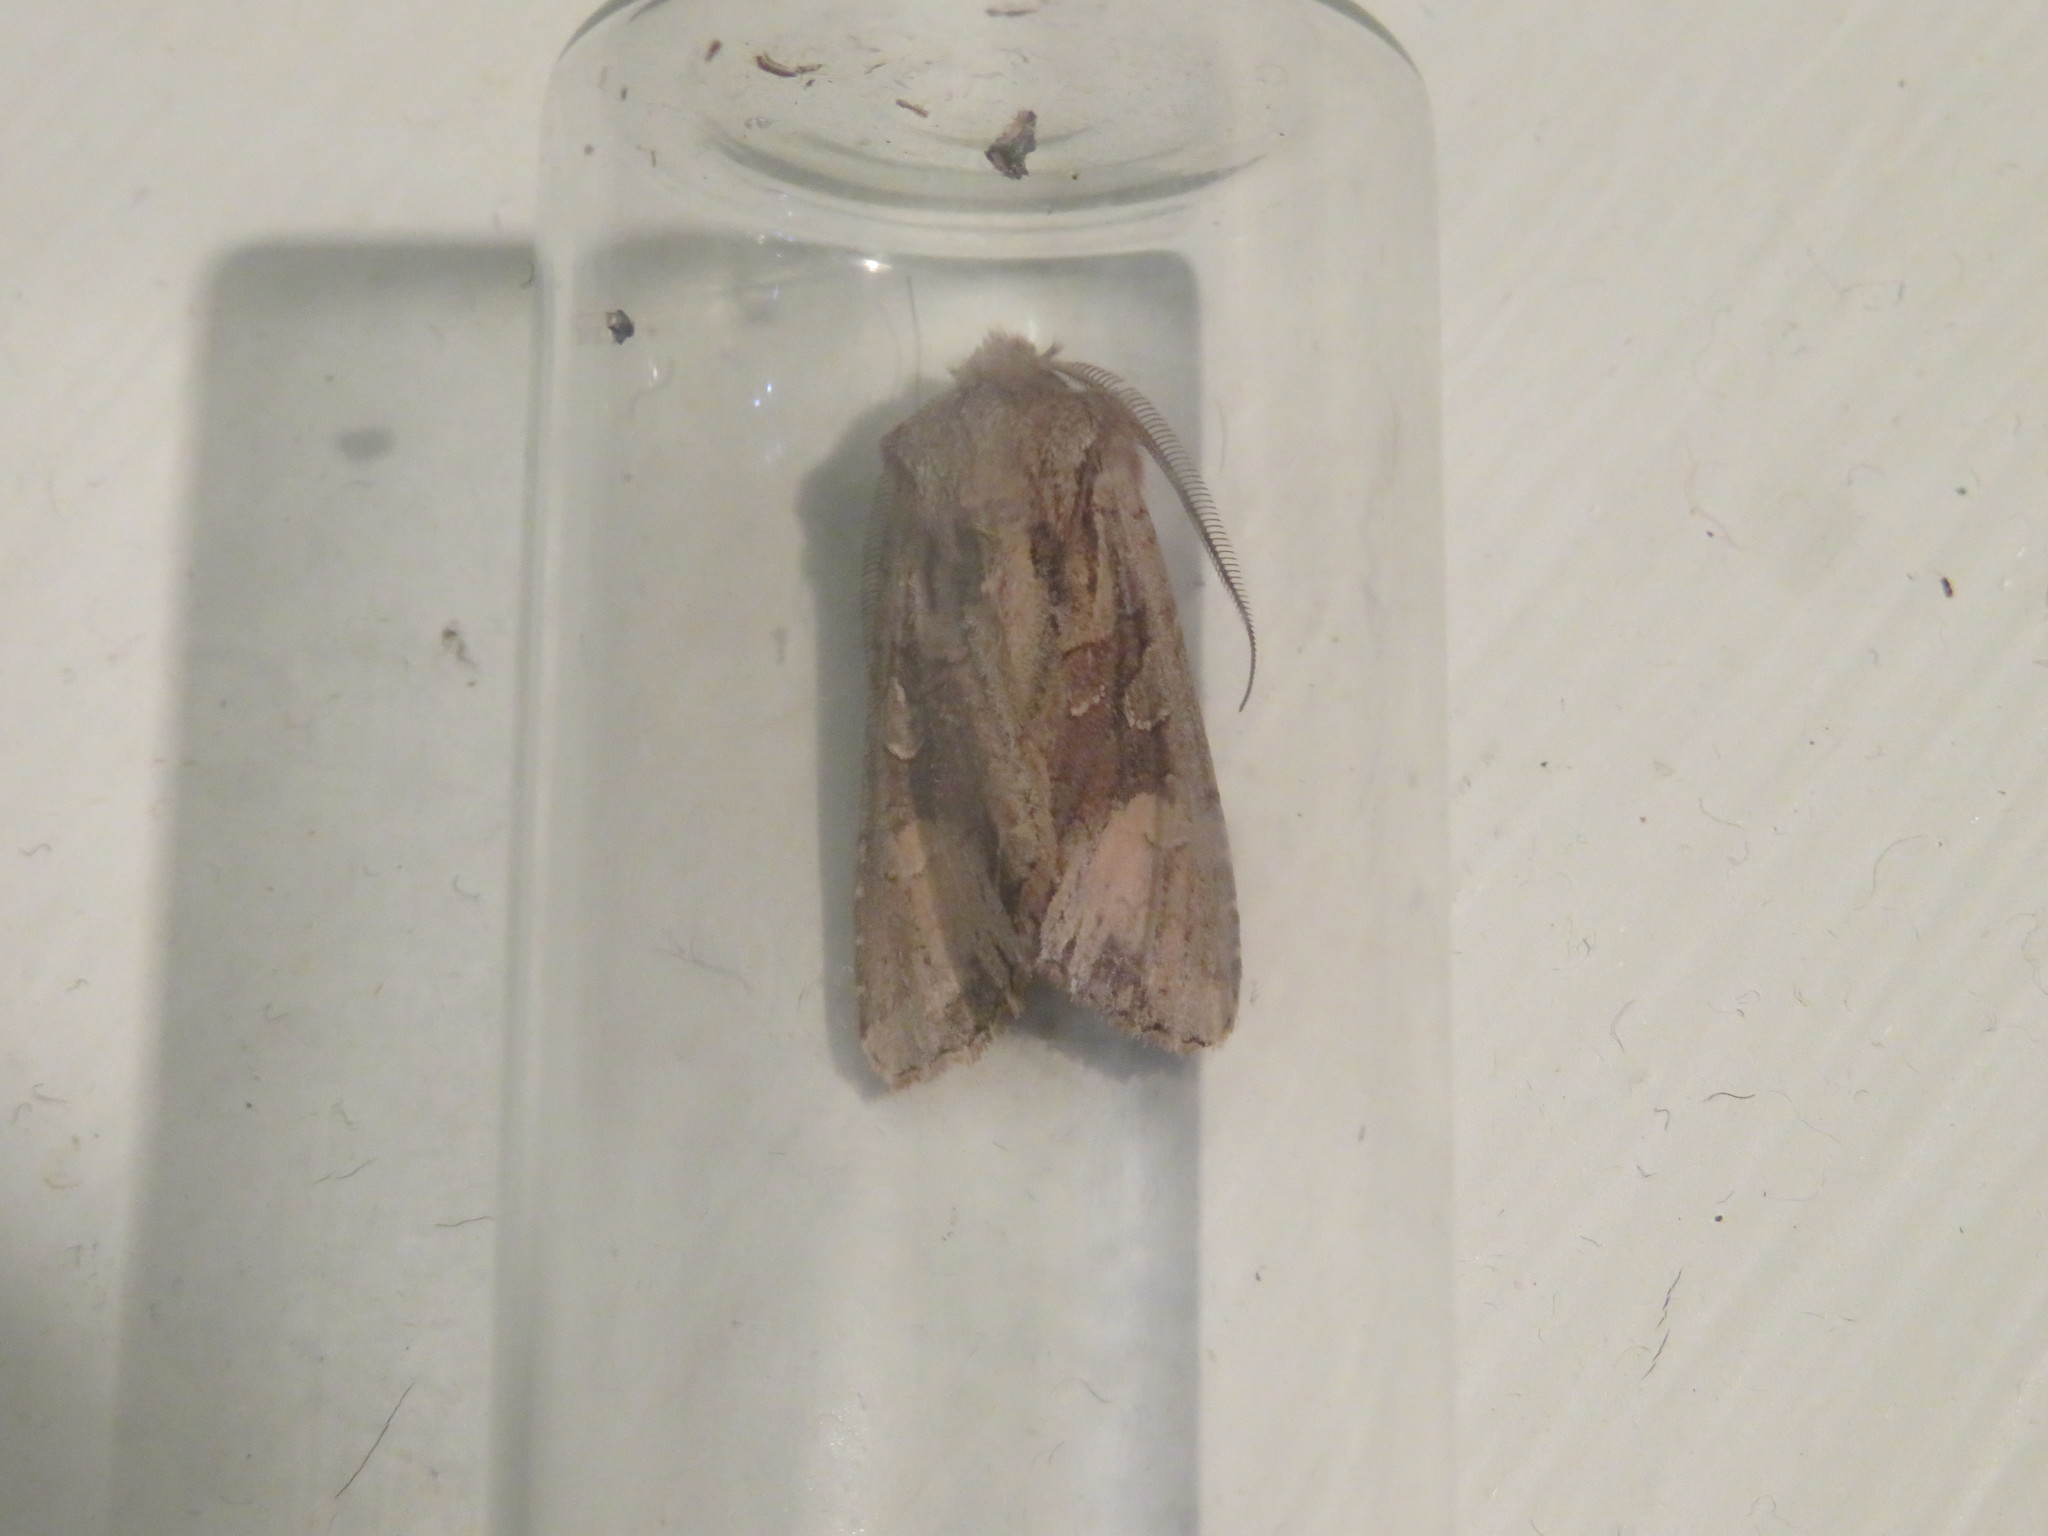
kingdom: Animalia
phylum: Arthropoda
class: Insecta
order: Lepidoptera
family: Noctuidae
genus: Ichneutica
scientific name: Ichneutica
